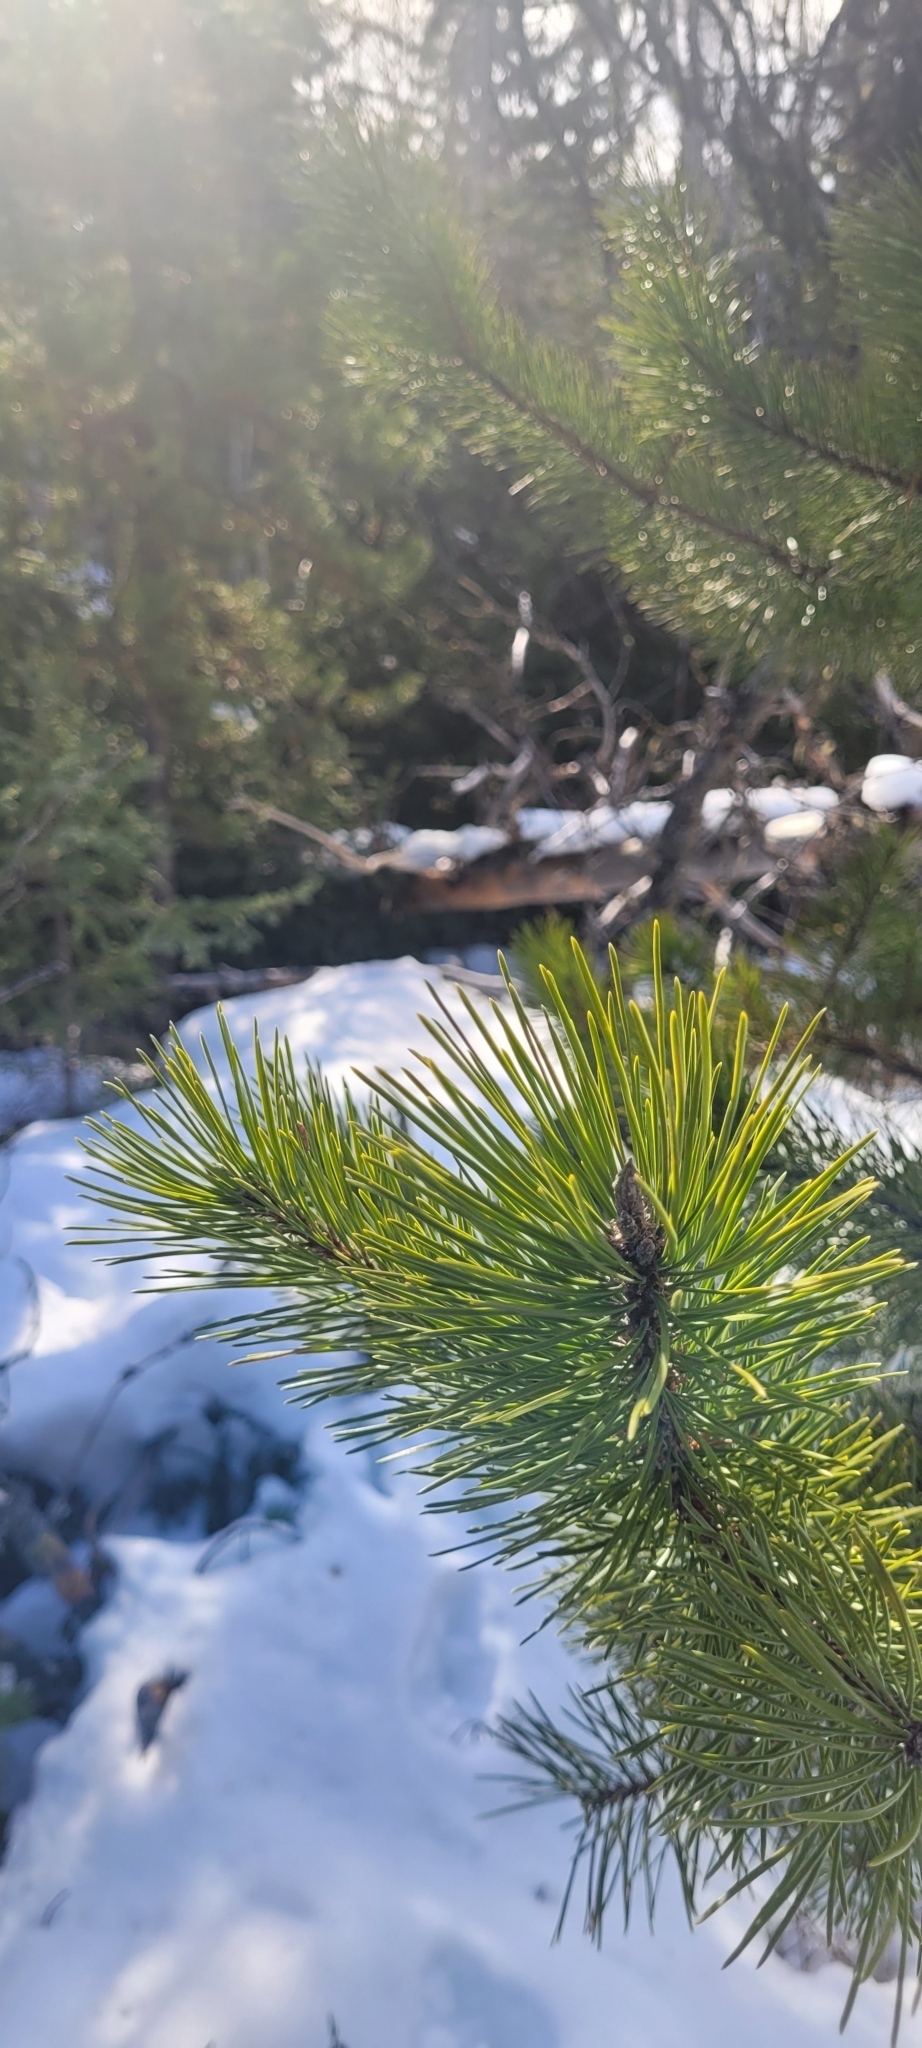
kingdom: Plantae
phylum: Tracheophyta
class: Pinopsida
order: Pinales
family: Pinaceae
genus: Pinus
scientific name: Pinus contorta
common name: Lodgepole pine
